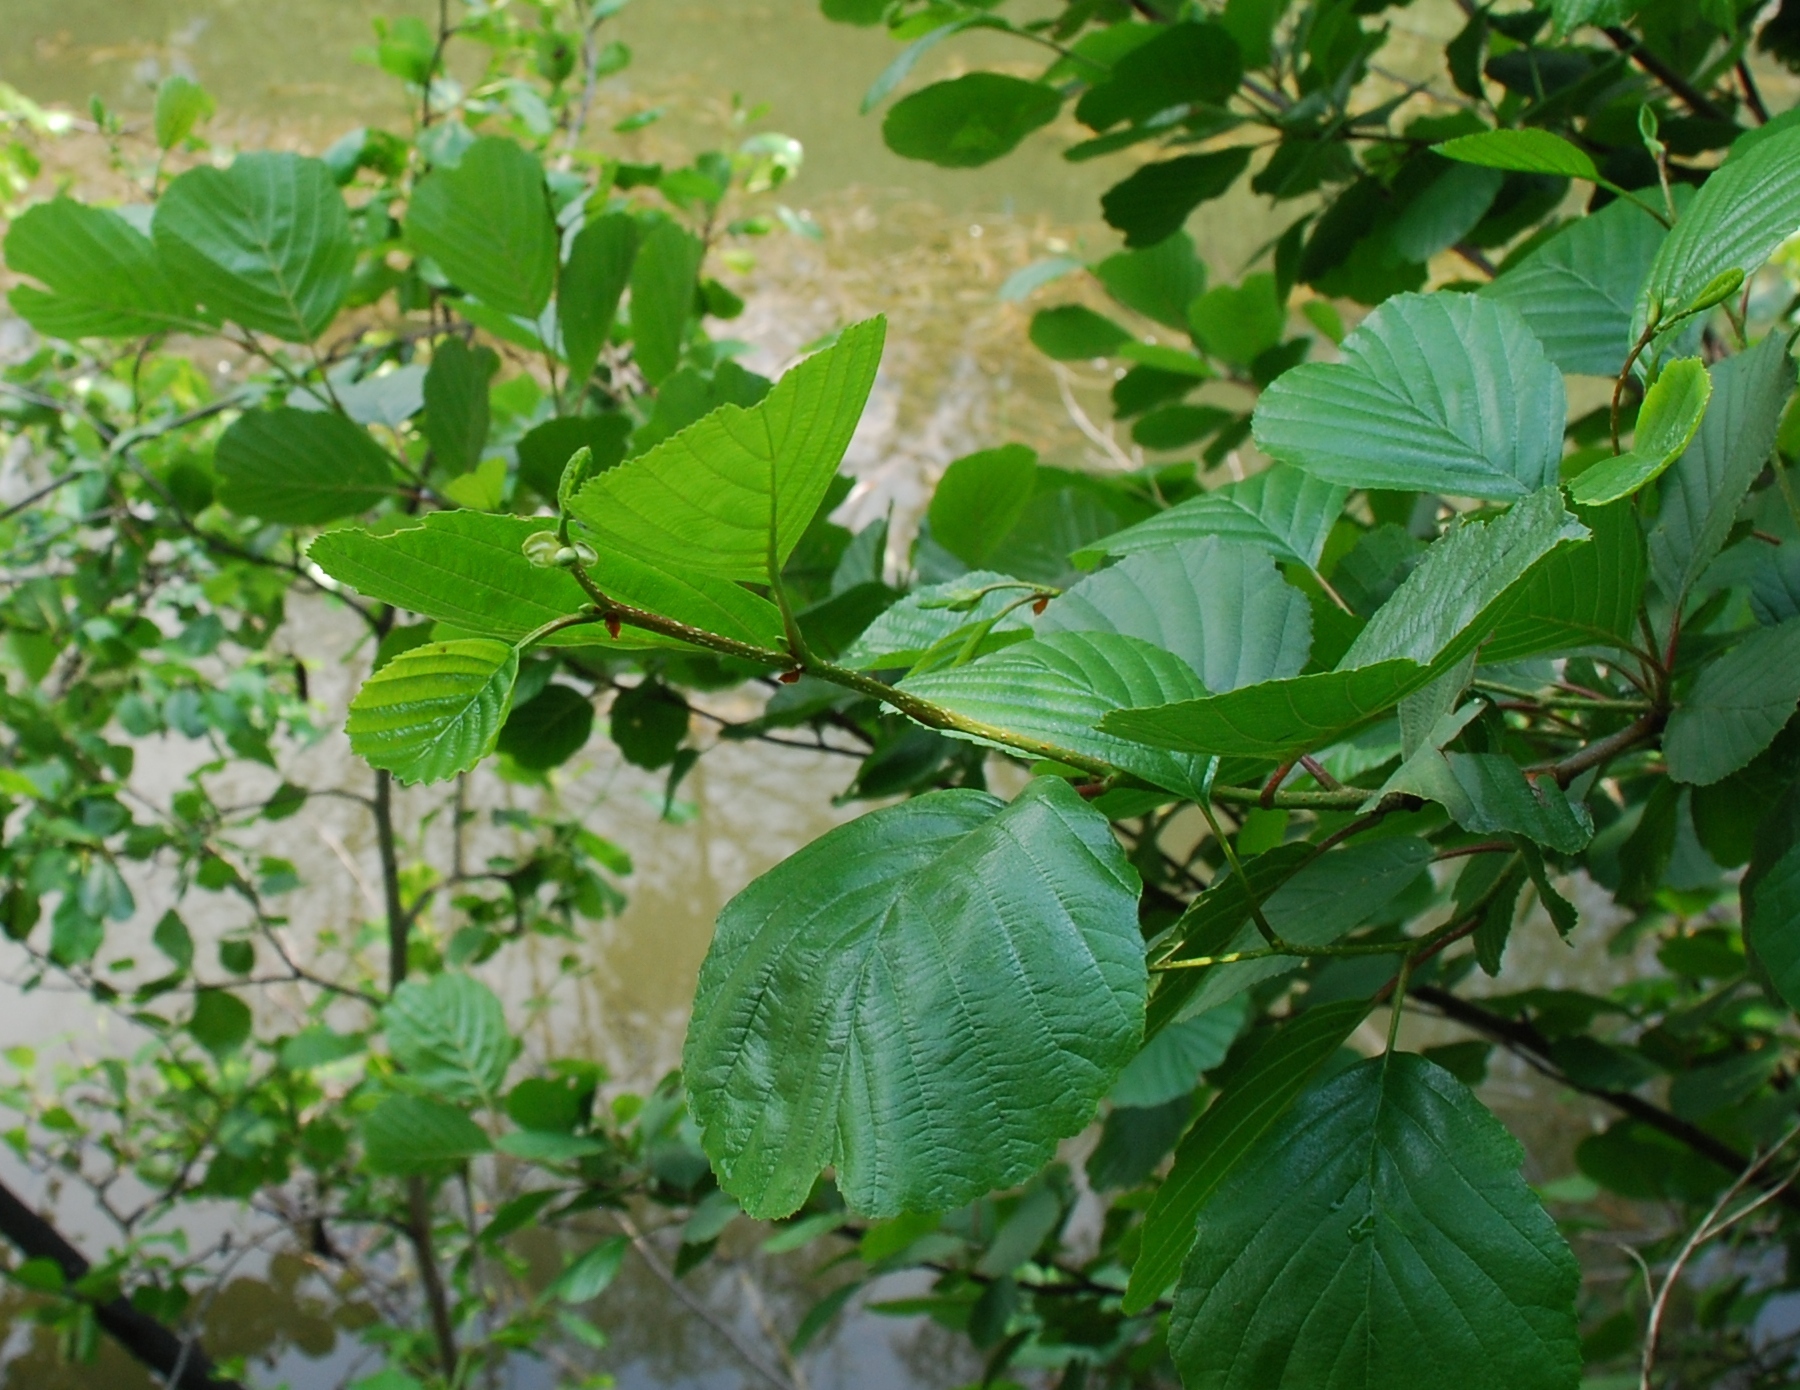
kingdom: Plantae
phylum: Tracheophyta
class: Magnoliopsida
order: Fagales
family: Betulaceae
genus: Alnus
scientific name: Alnus glutinosa
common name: Black alder
